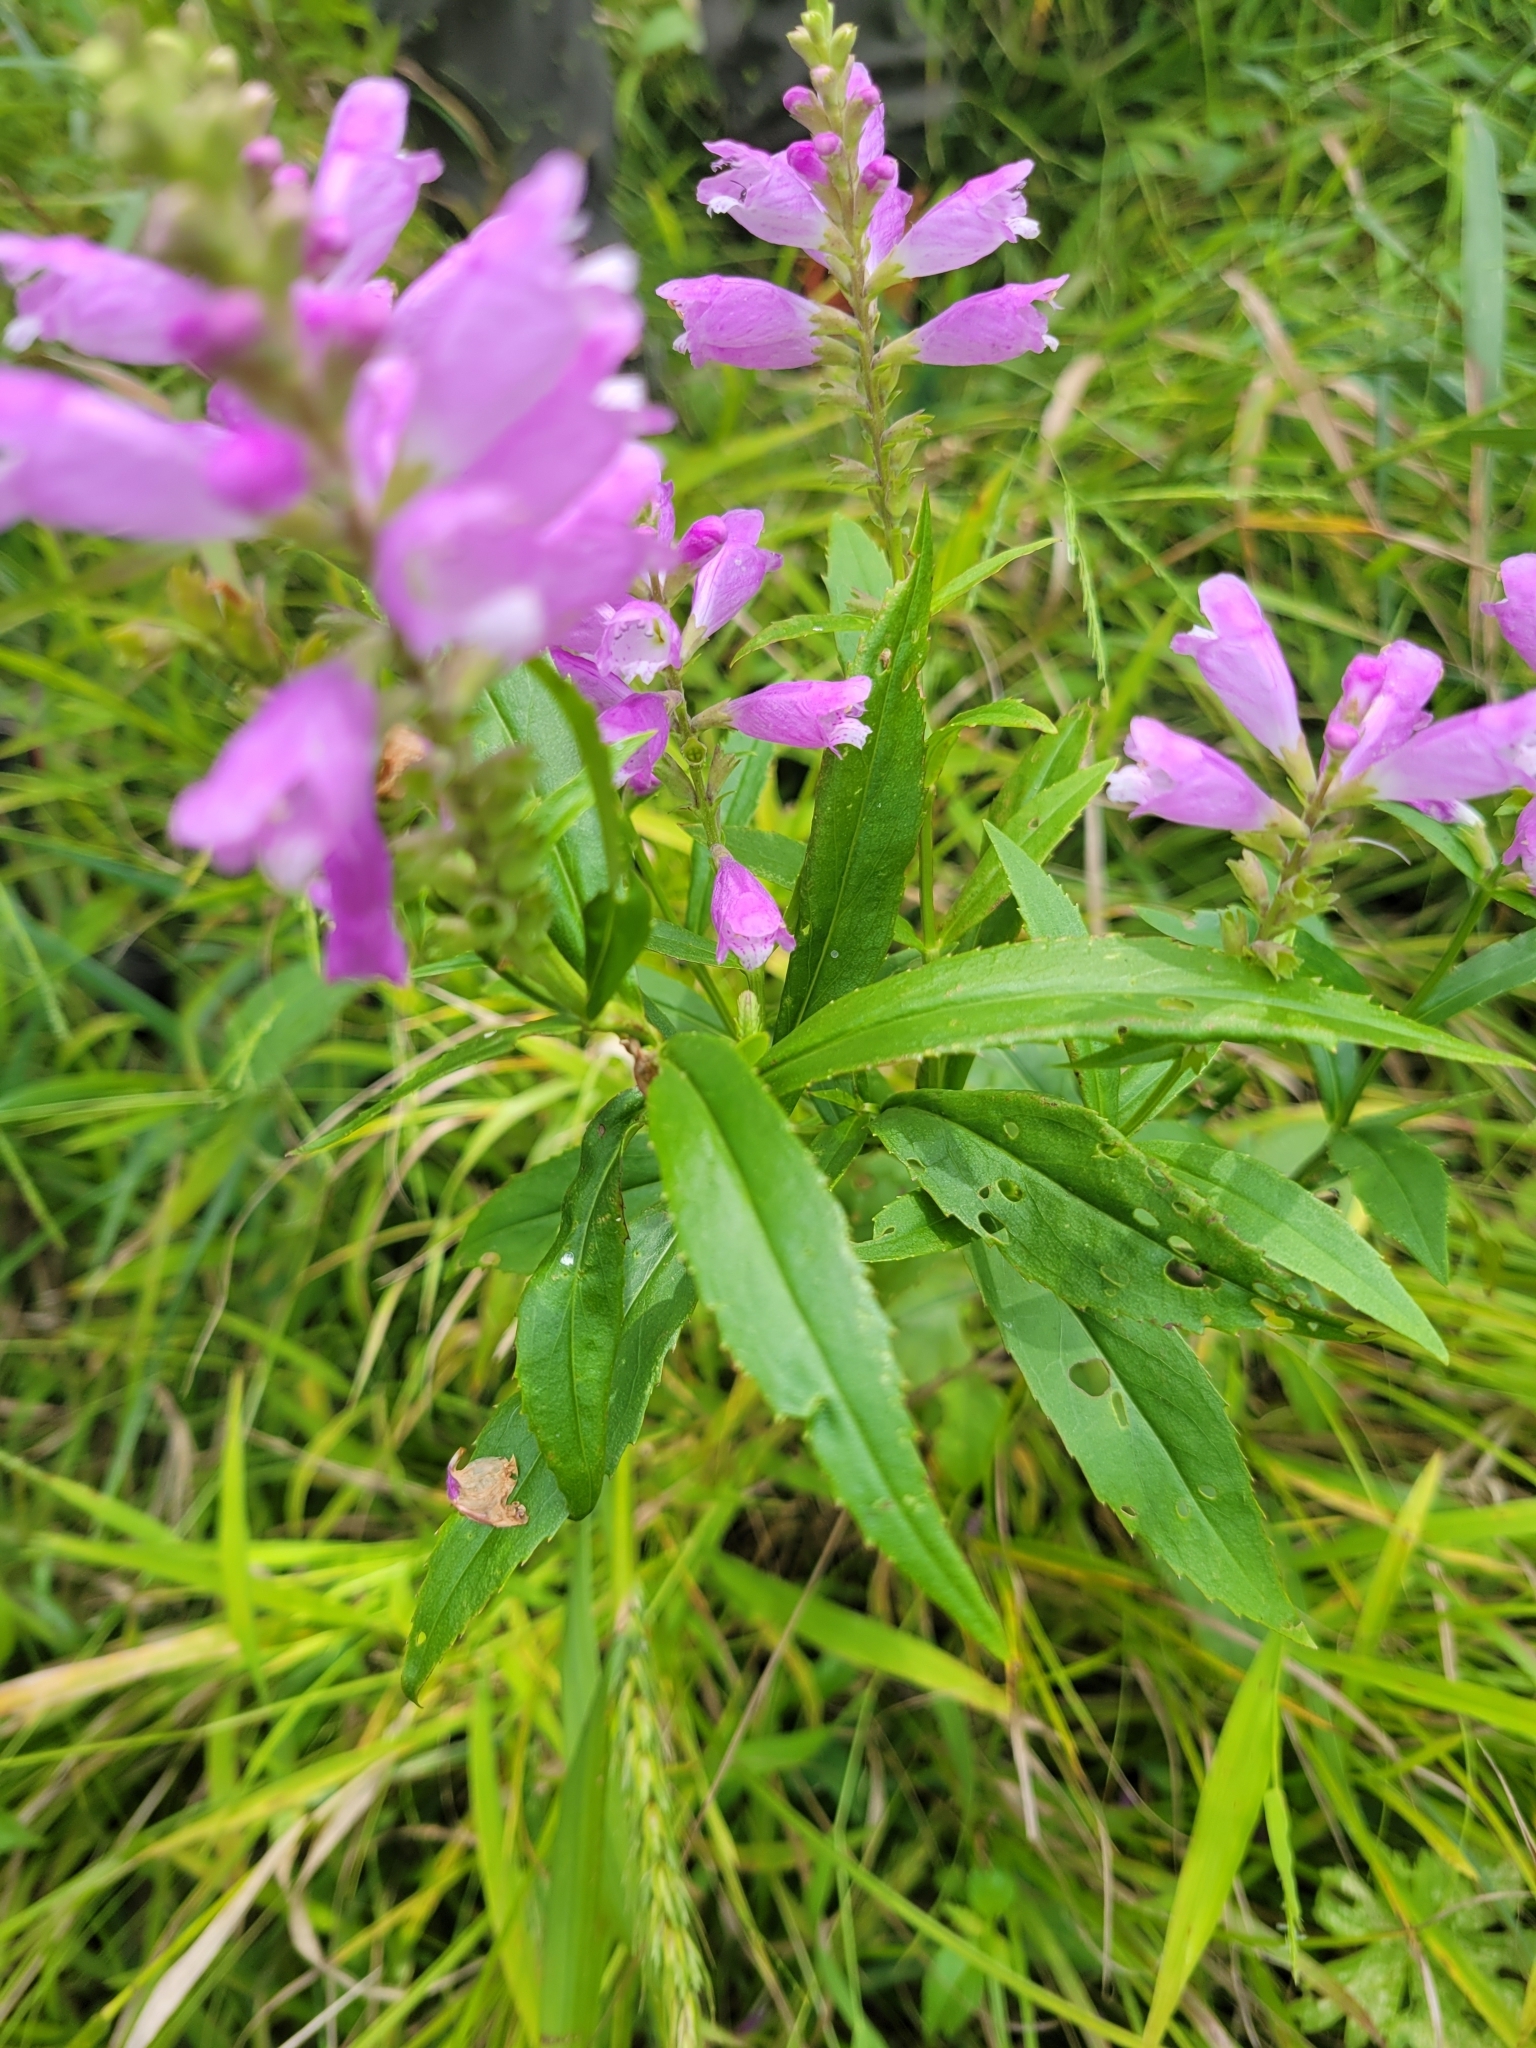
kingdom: Plantae
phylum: Tracheophyta
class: Magnoliopsida
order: Lamiales
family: Lamiaceae
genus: Physostegia
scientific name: Physostegia virginiana
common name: Obedient-plant
